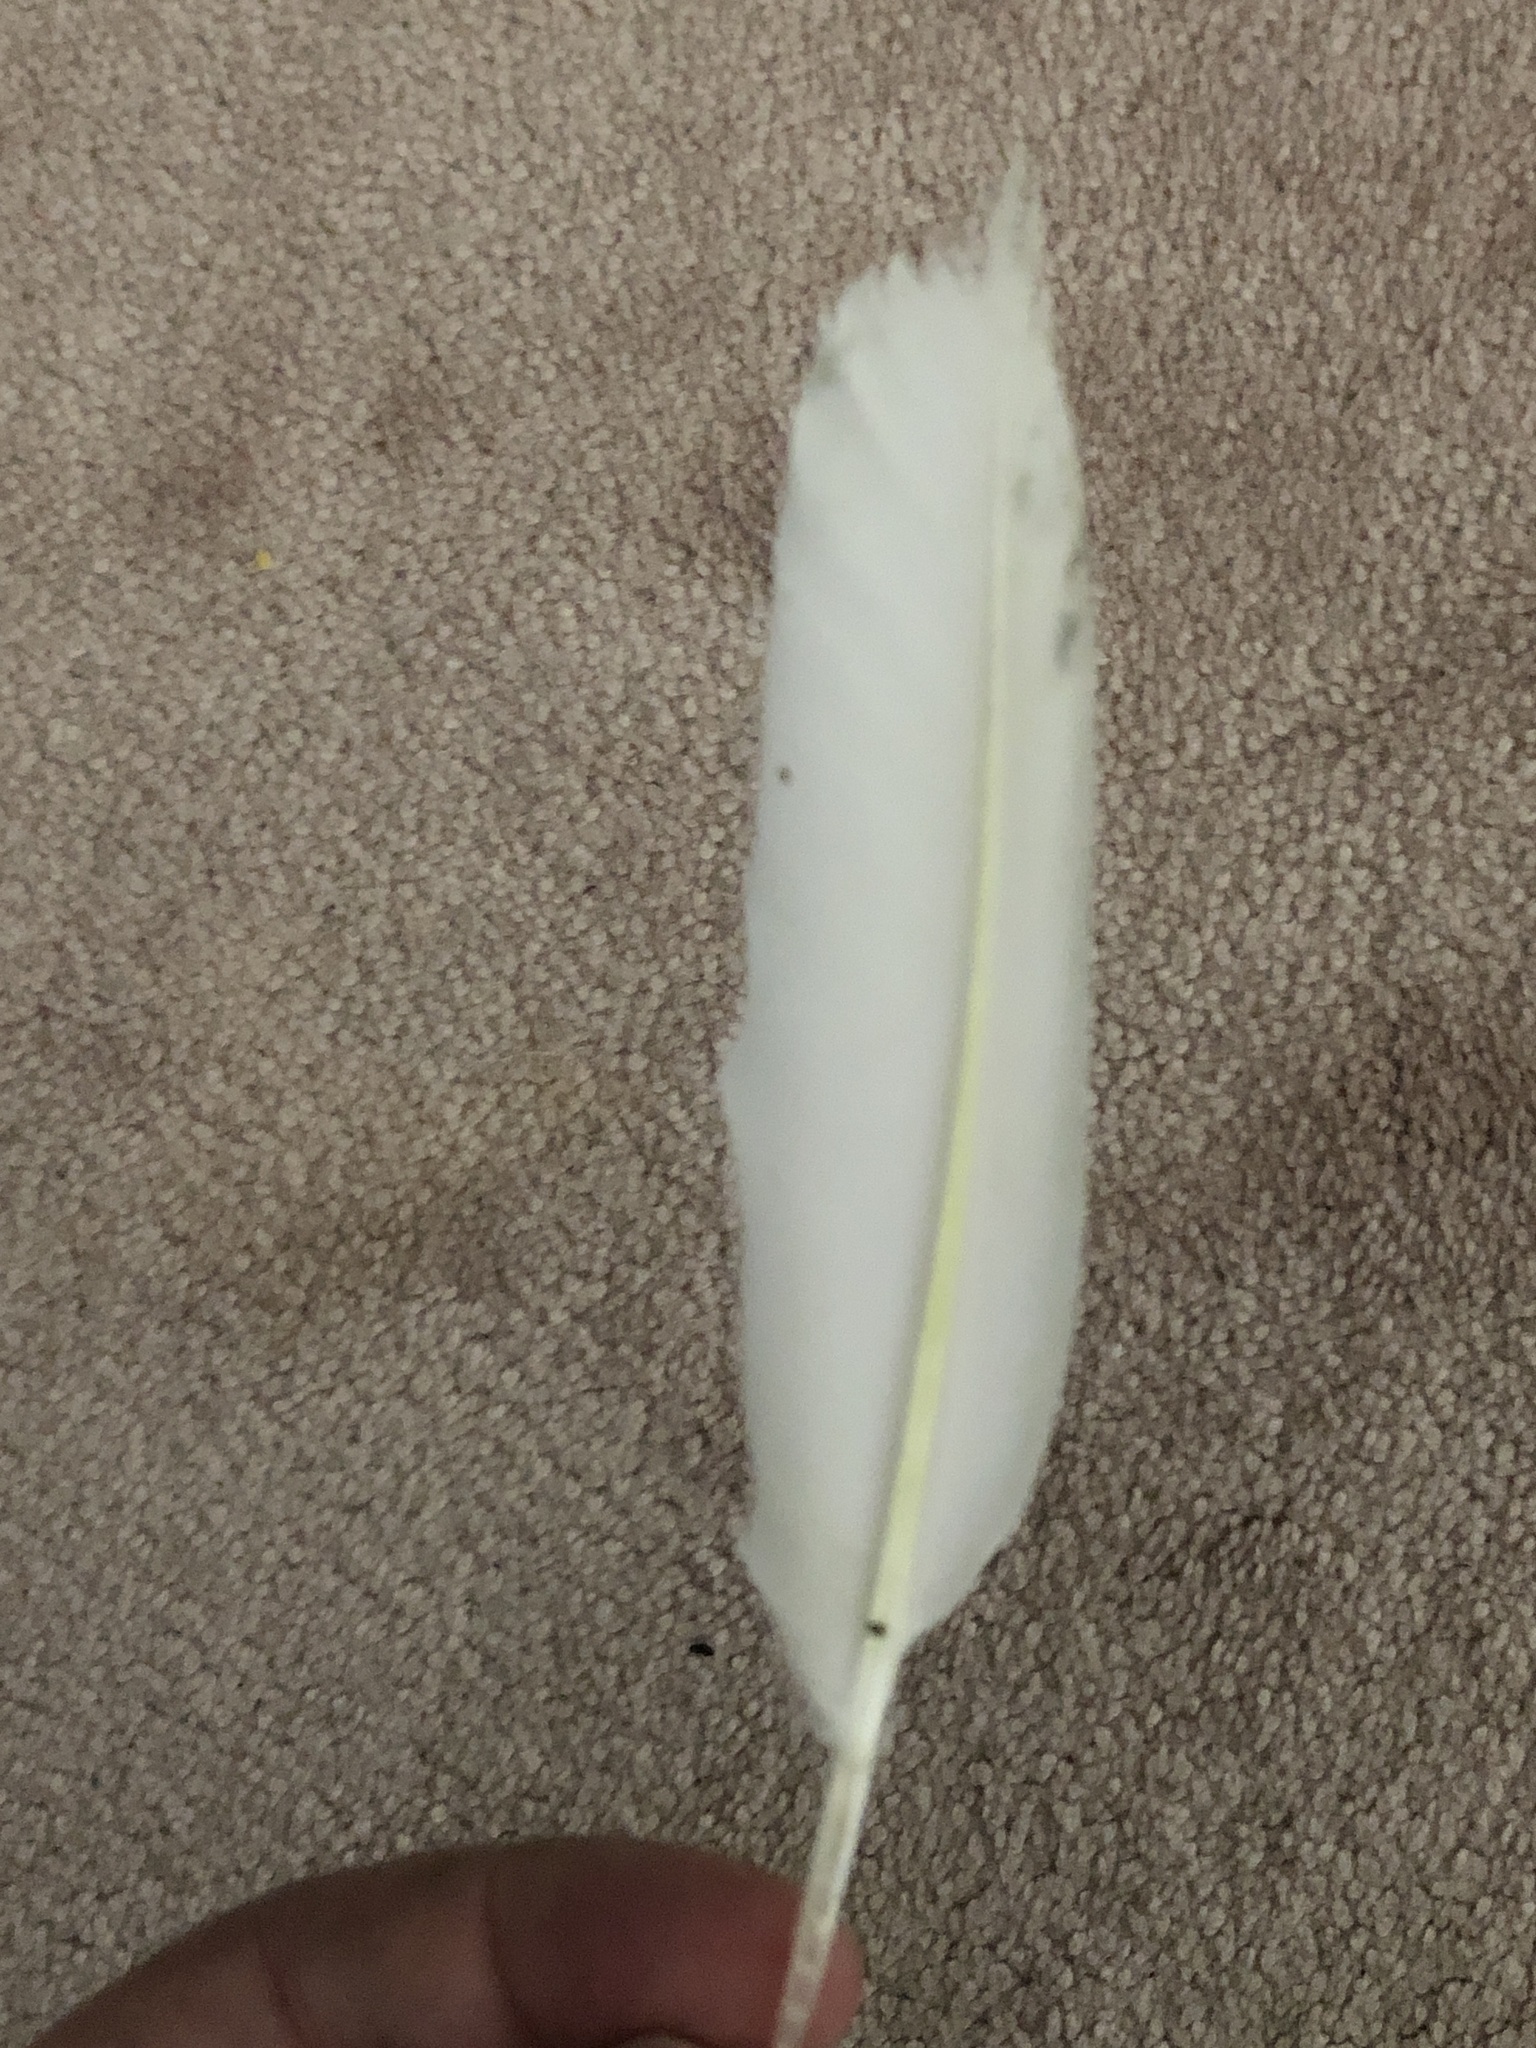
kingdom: Animalia
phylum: Chordata
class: Aves
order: Columbiformes
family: Columbidae
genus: Columba
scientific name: Columba livia
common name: Rock pigeon
